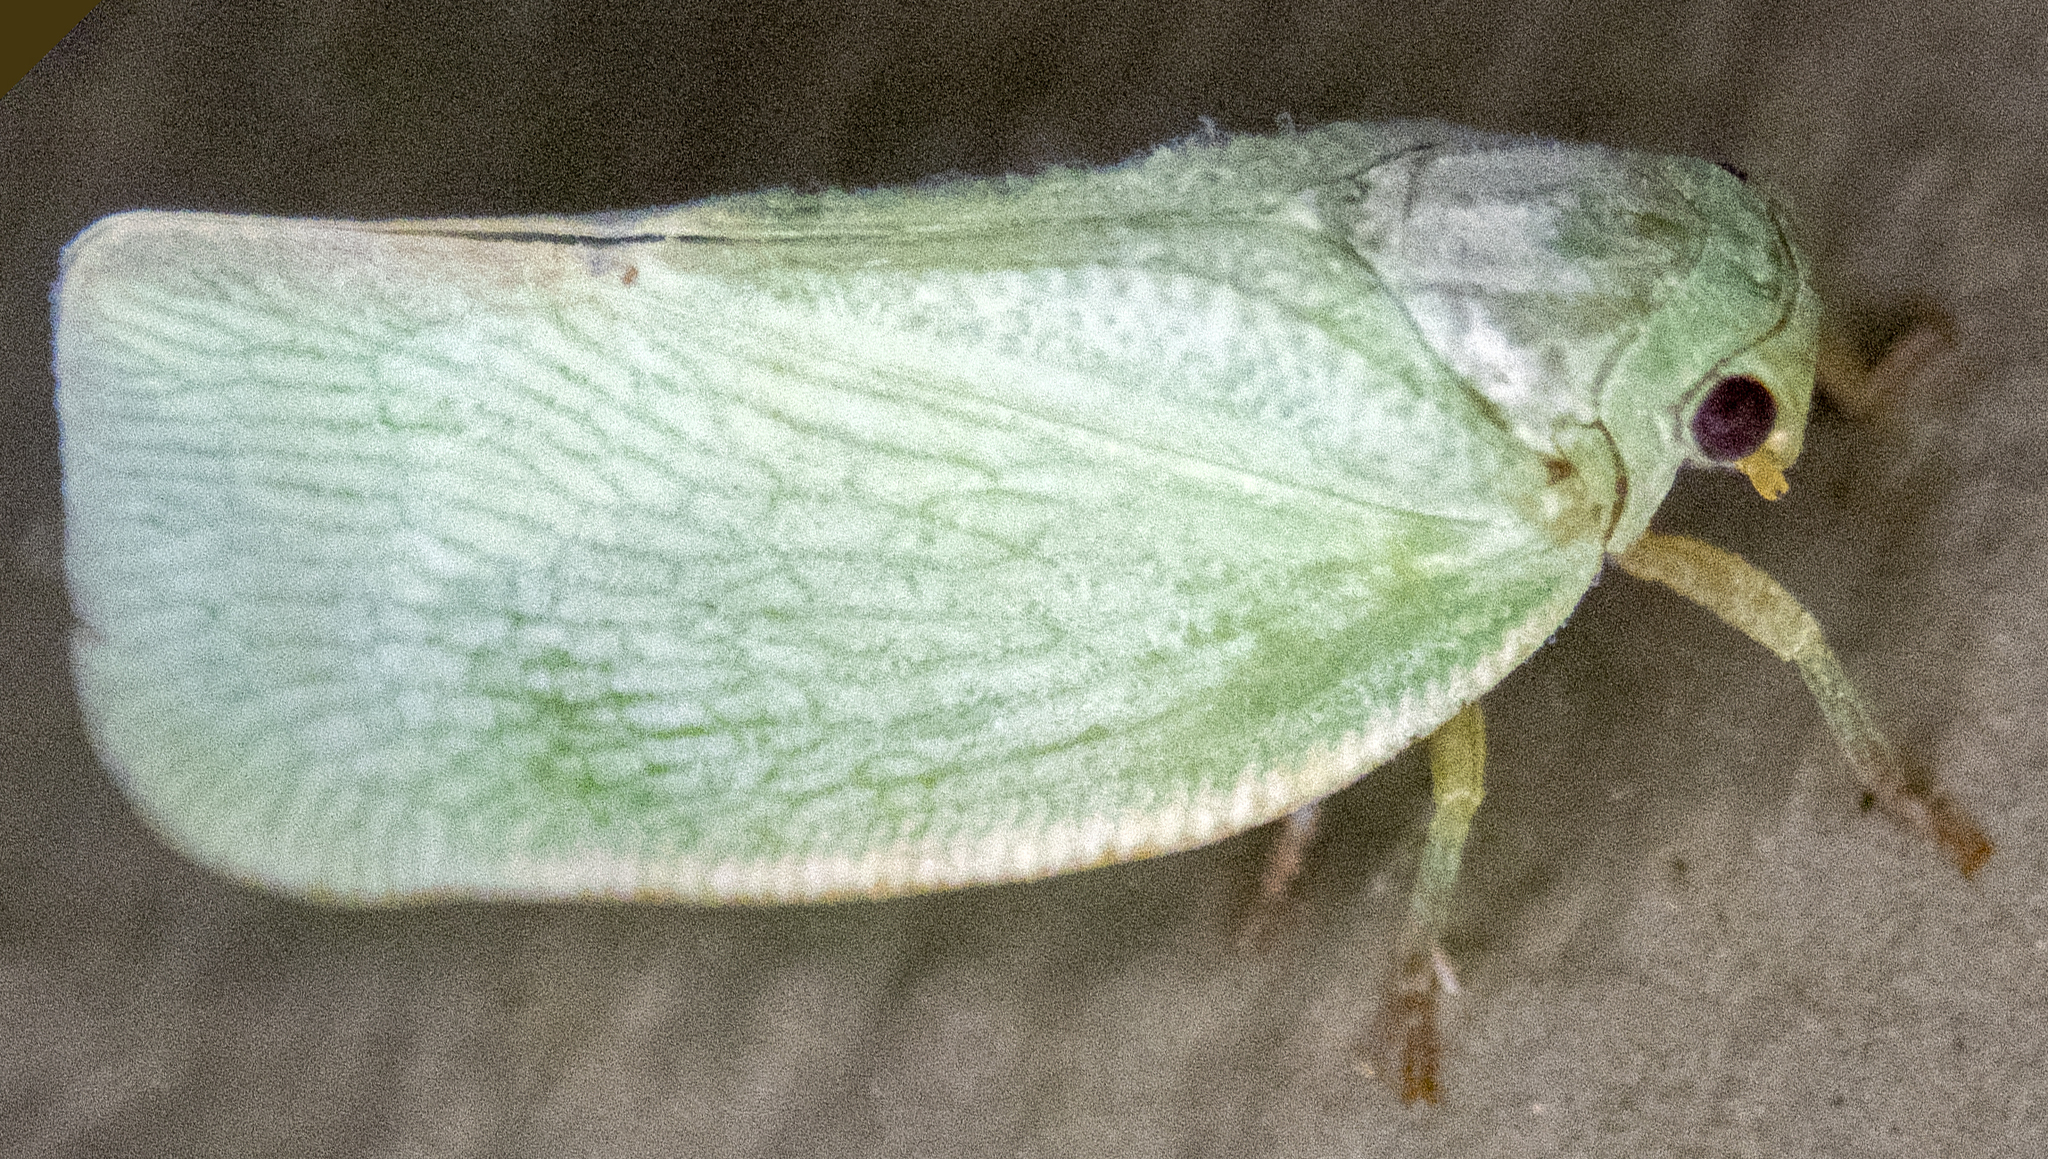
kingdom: Animalia
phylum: Arthropoda
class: Insecta
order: Hemiptera
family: Flatidae
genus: Flatormenis
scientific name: Flatormenis proxima
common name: Northern flatid planthopper
